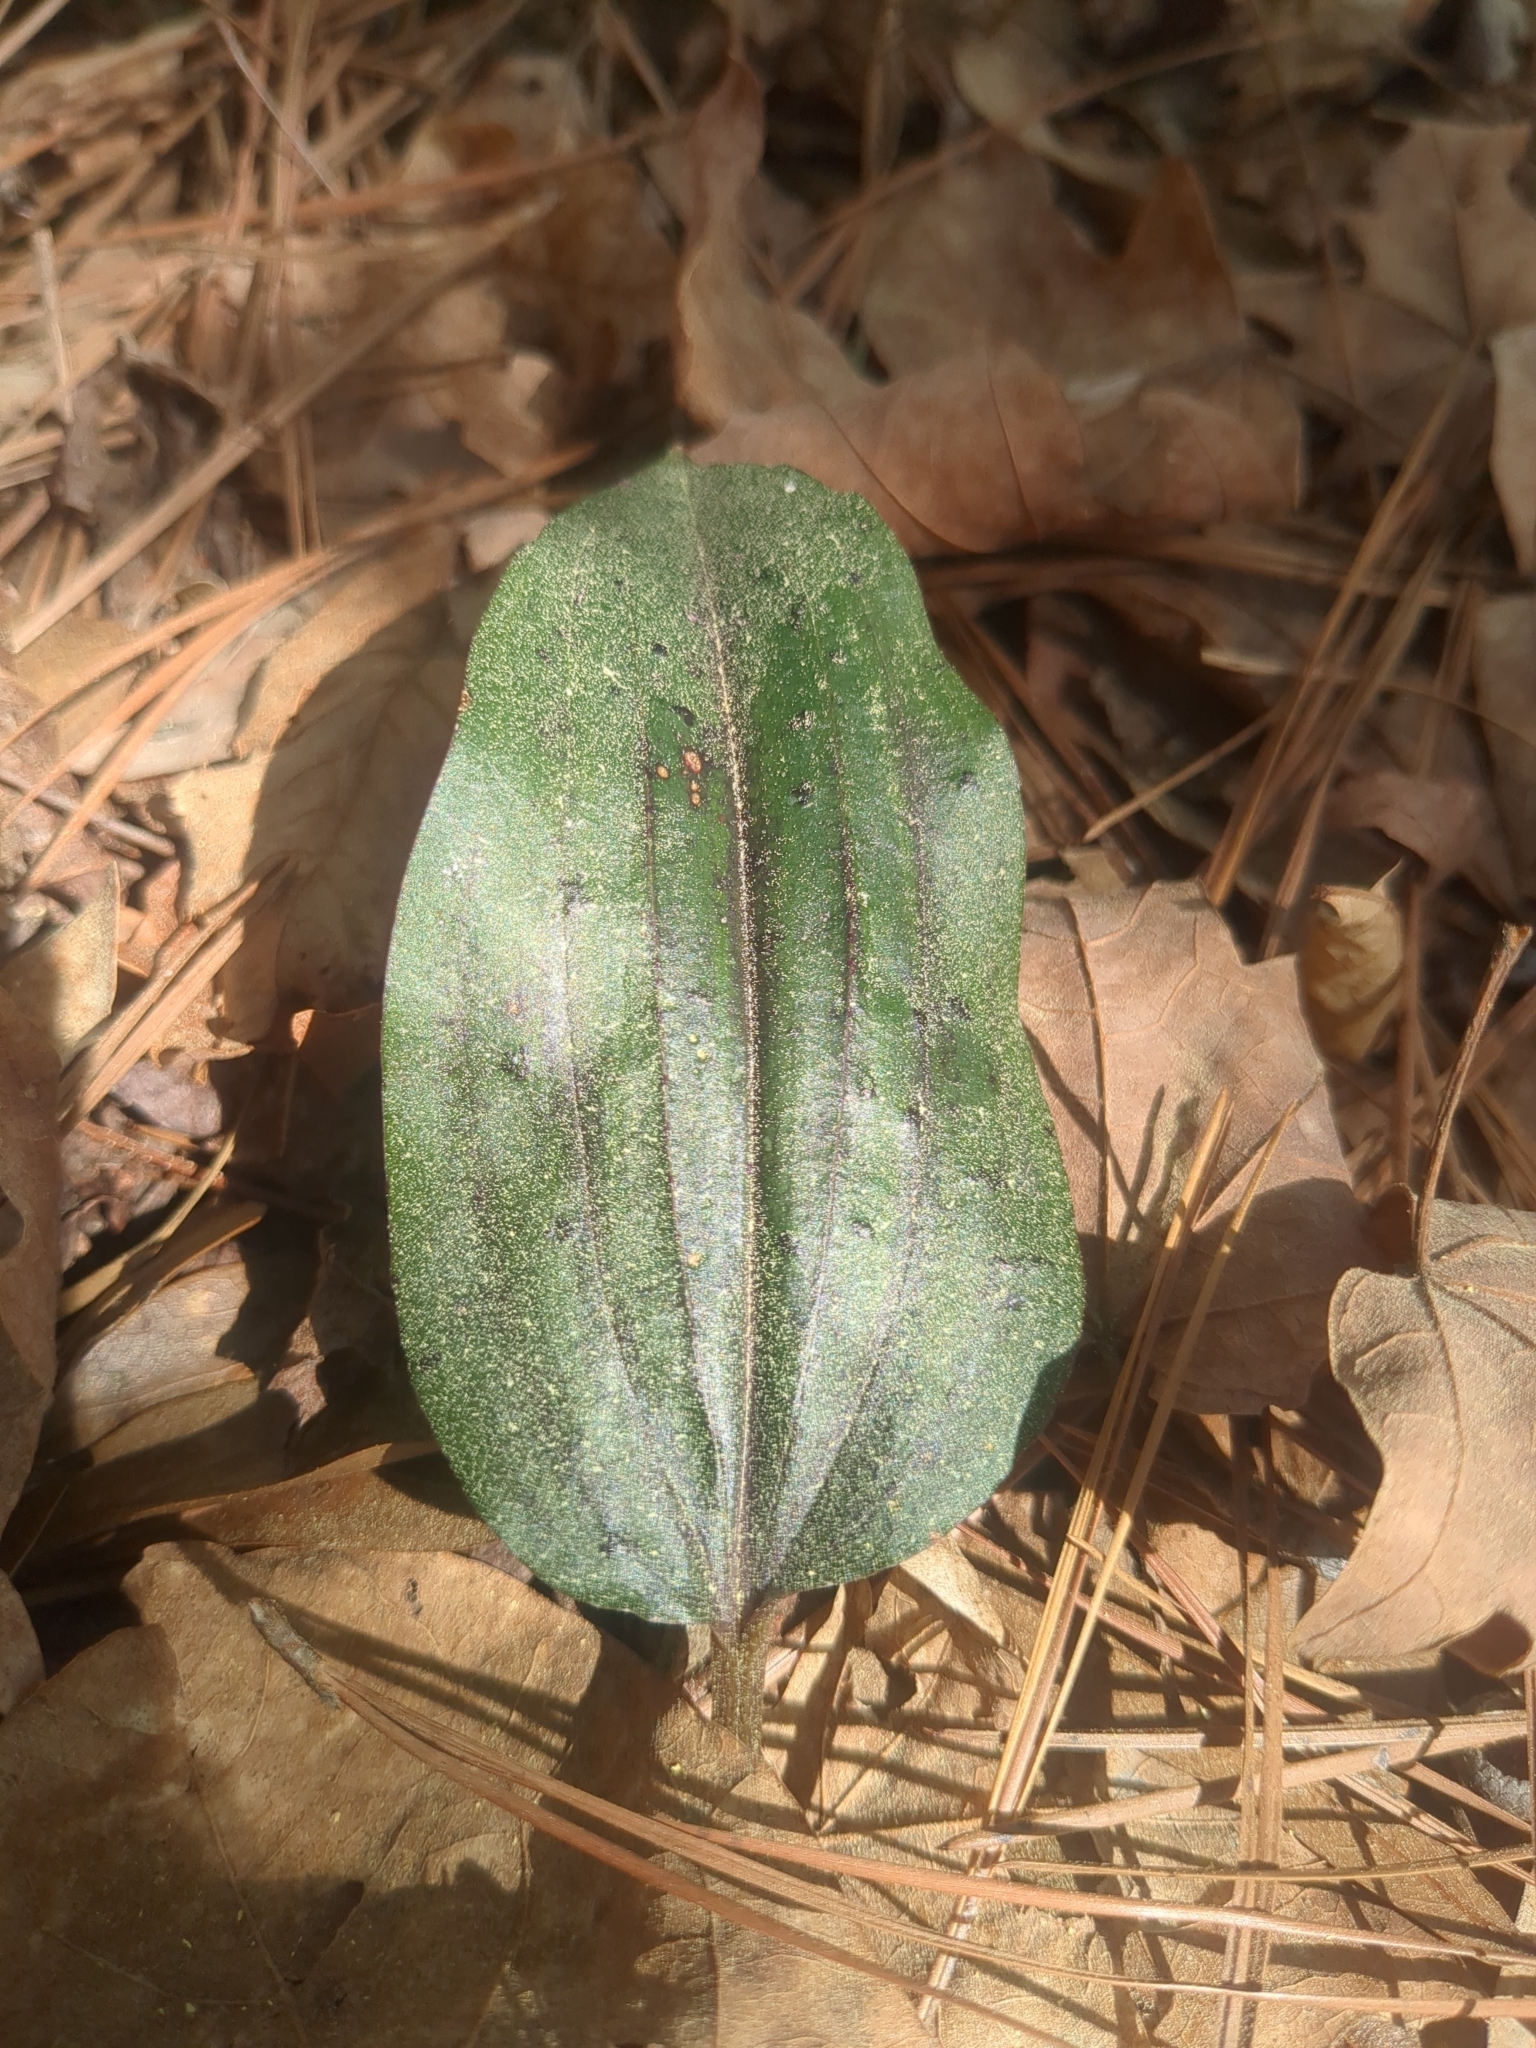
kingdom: Plantae
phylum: Tracheophyta
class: Liliopsida
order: Asparagales
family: Orchidaceae
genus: Tipularia
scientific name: Tipularia discolor
